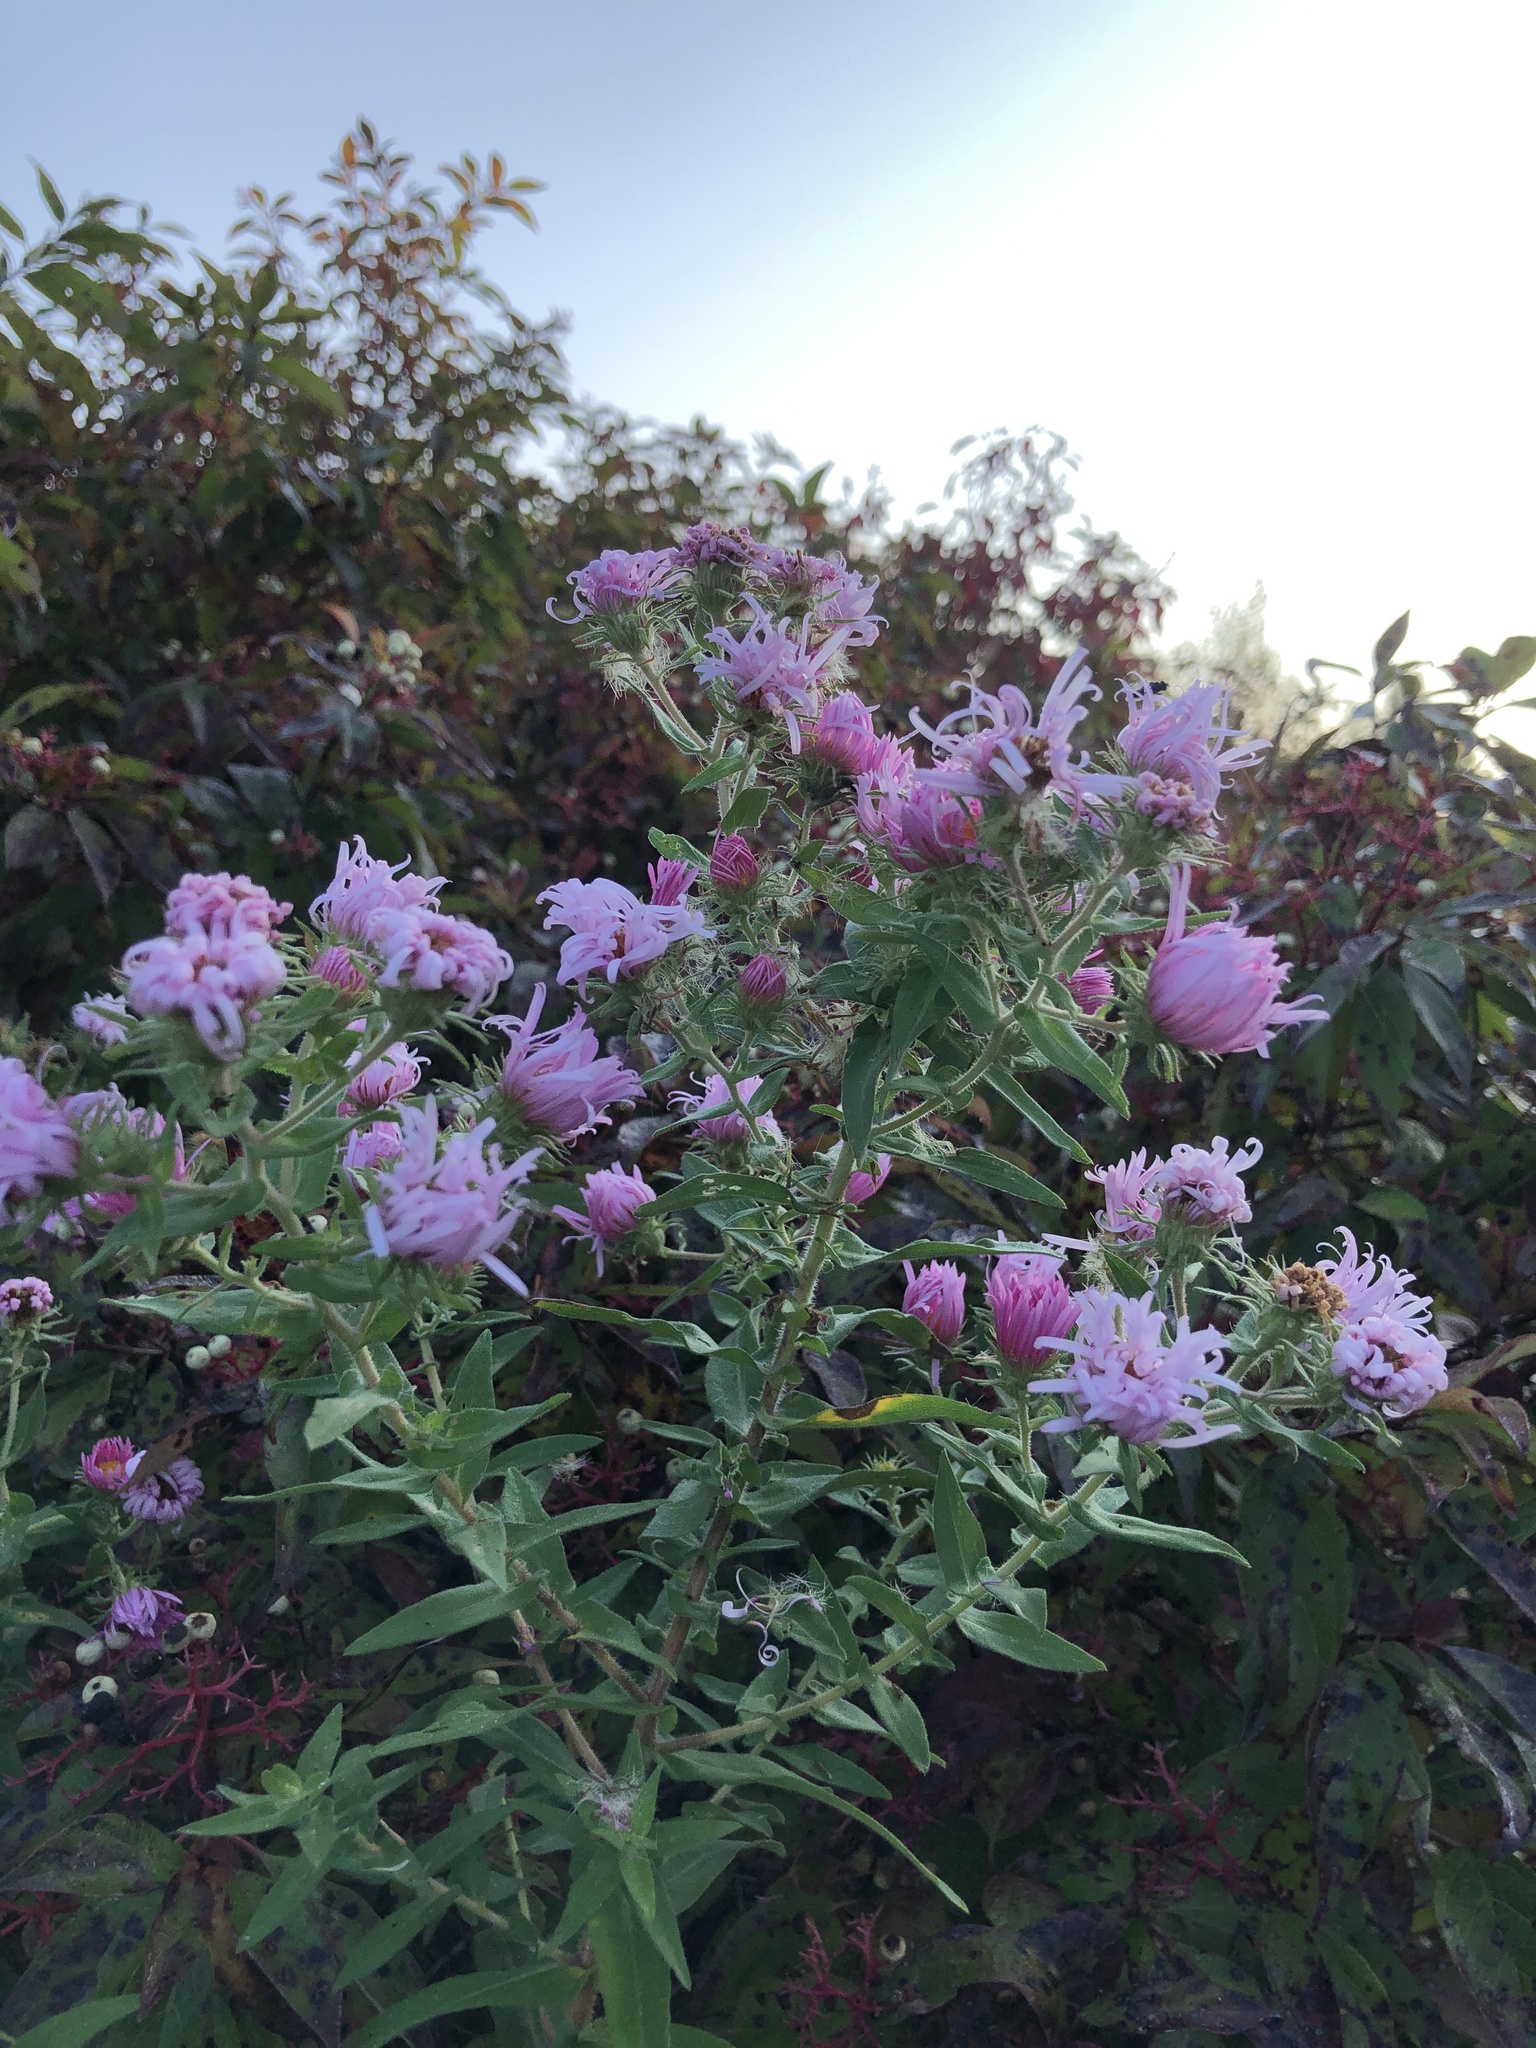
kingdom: Plantae
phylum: Tracheophyta
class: Magnoliopsida
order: Asterales
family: Asteraceae
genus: Symphyotrichum
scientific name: Symphyotrichum novae-angliae
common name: Michaelmas daisy
